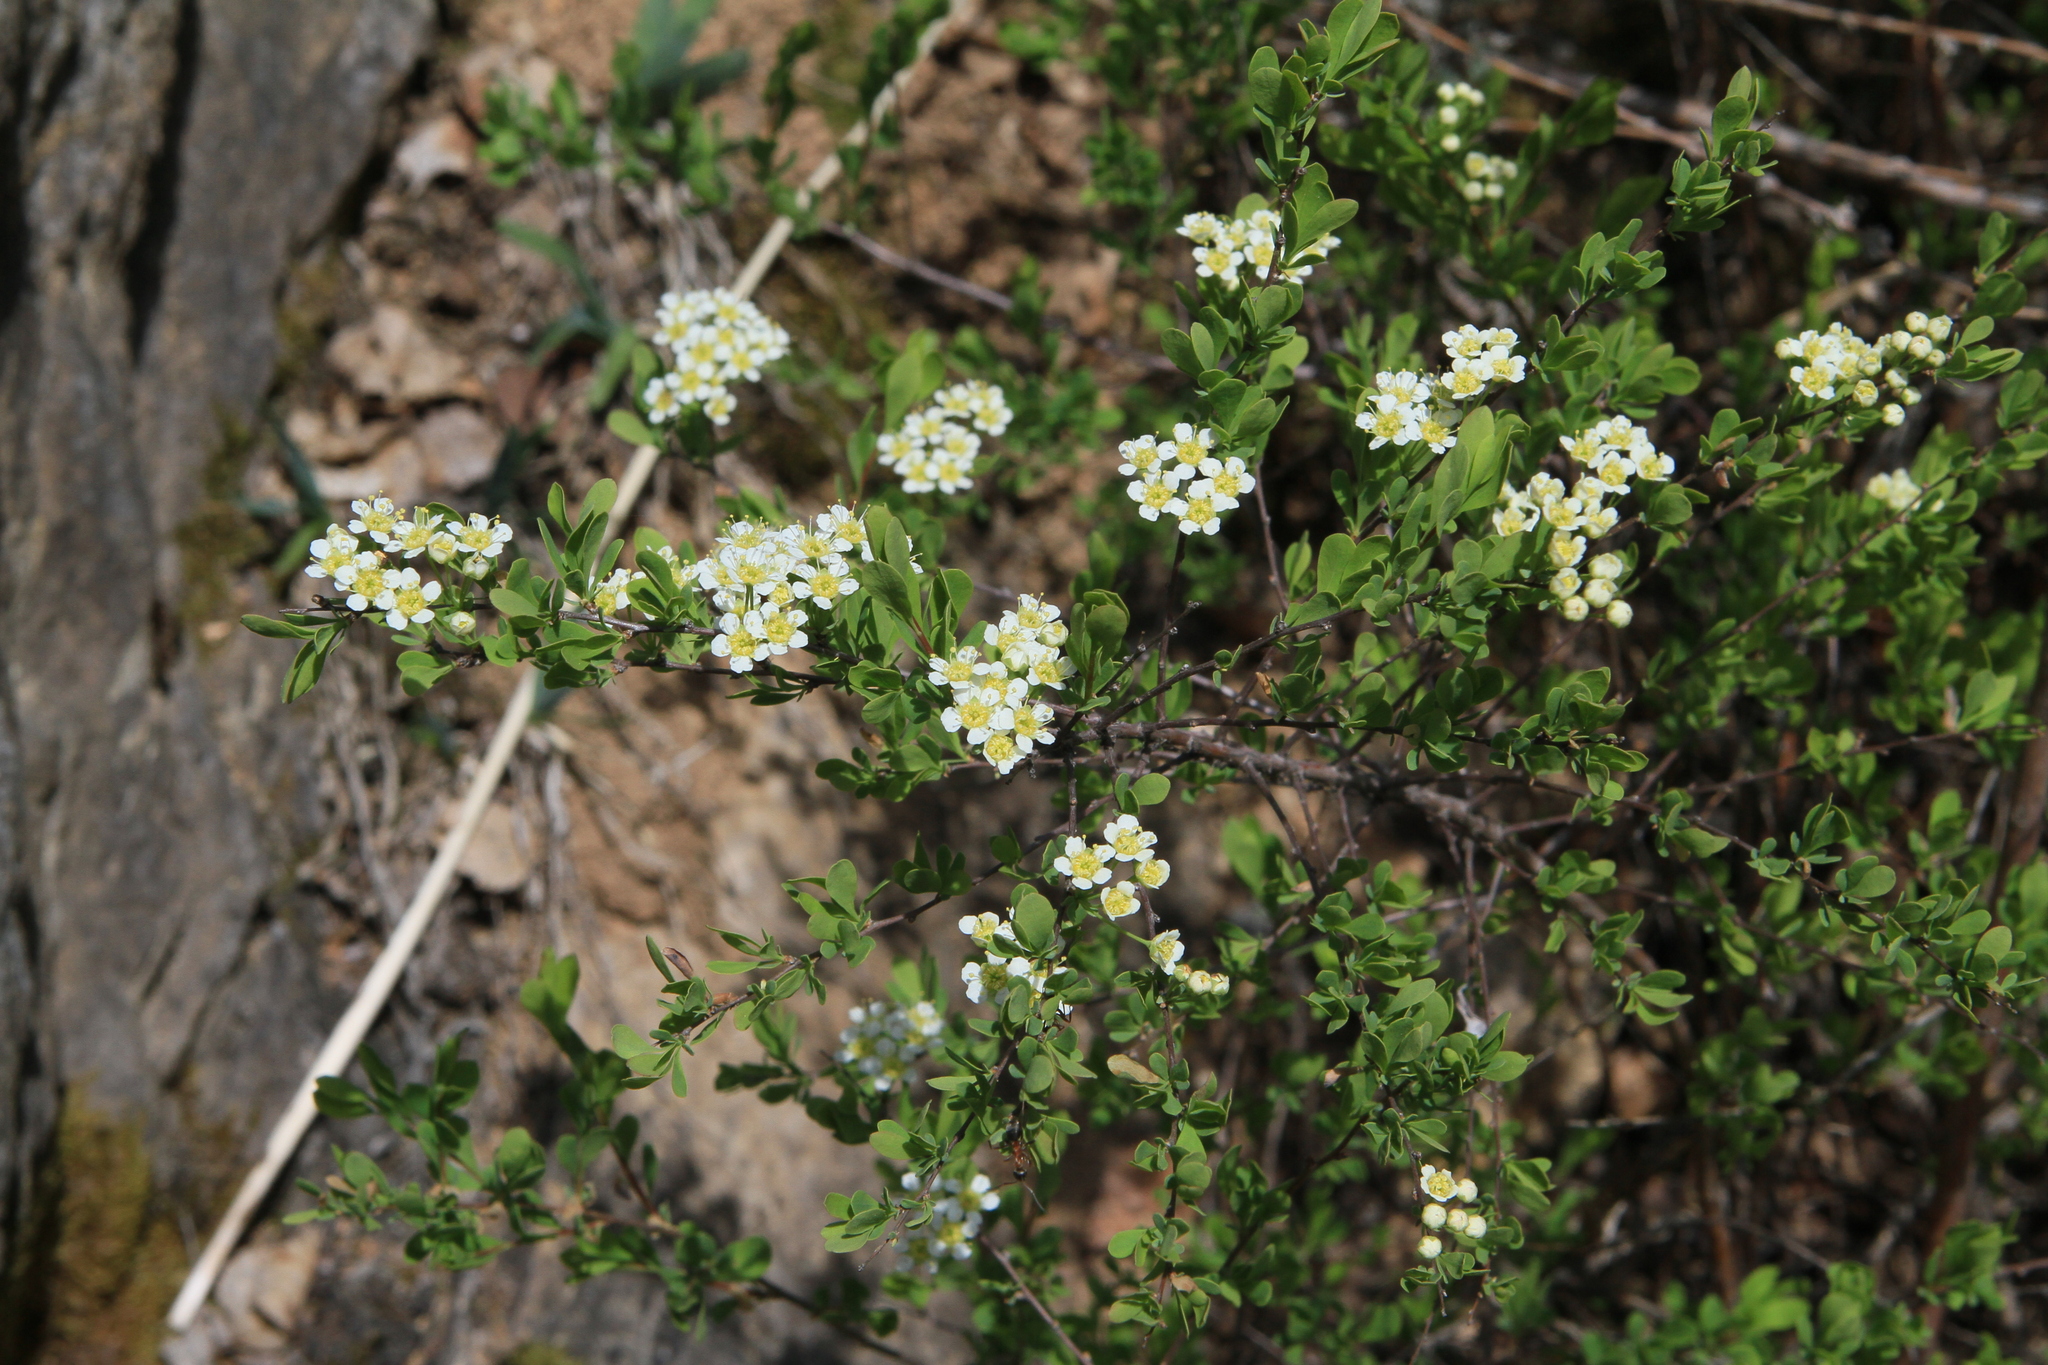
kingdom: Plantae
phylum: Tracheophyta
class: Magnoliopsida
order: Rosales
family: Rosaceae
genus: Spiraea
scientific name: Spiraea hypericifolia
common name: Iberian spirea
